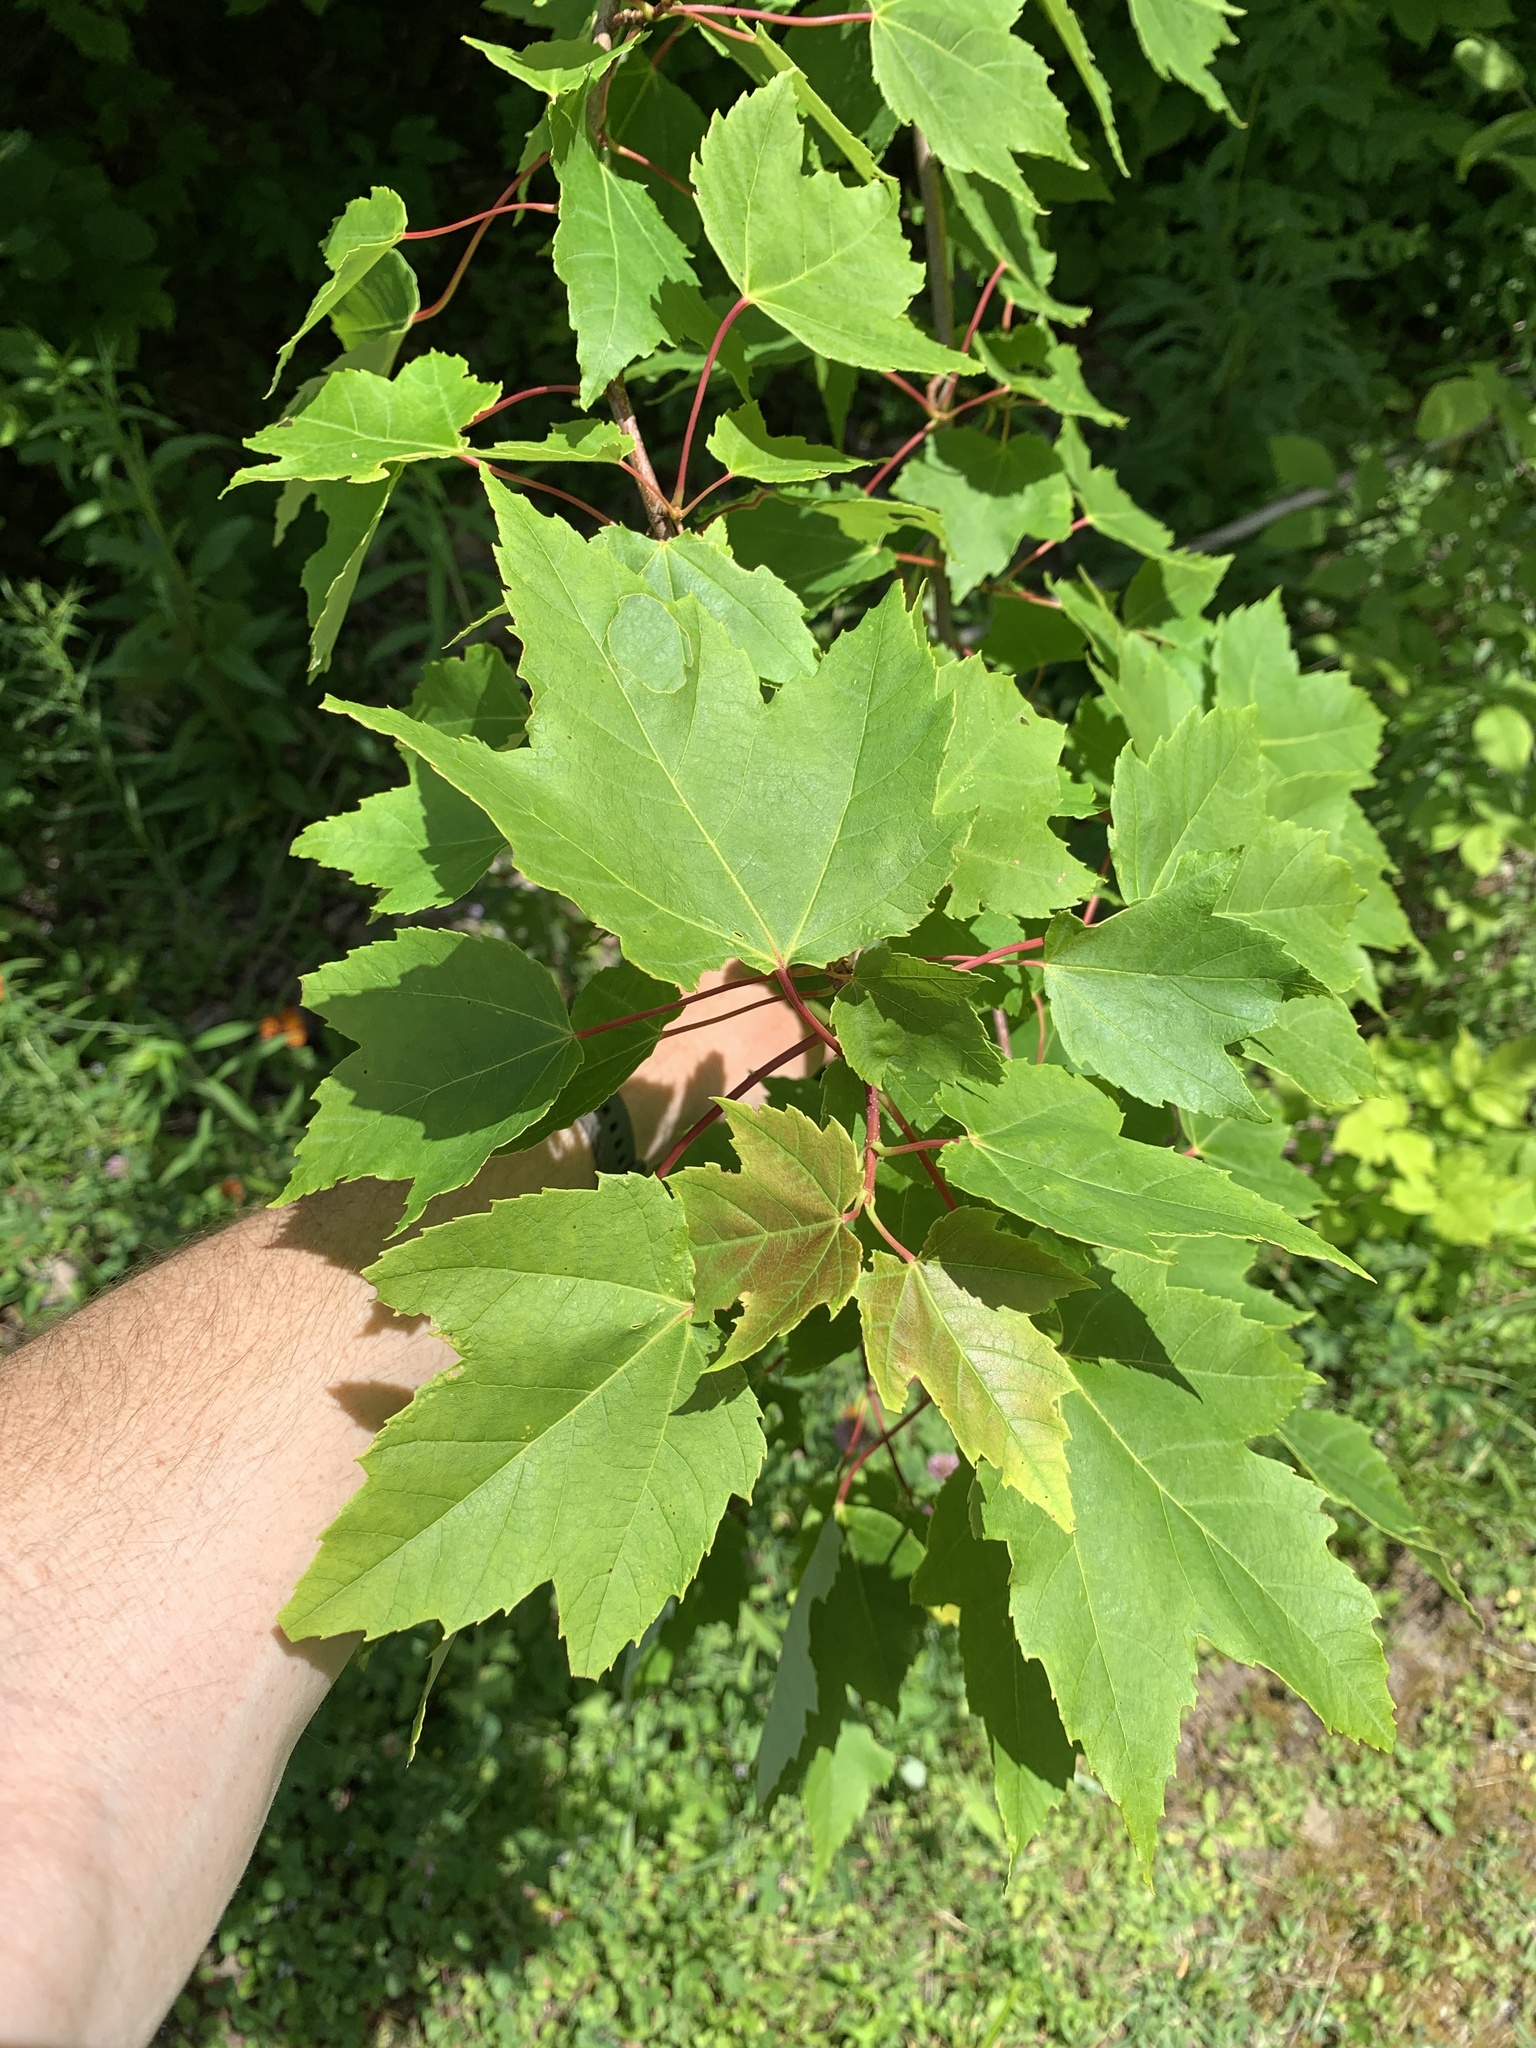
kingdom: Plantae
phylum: Tracheophyta
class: Magnoliopsida
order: Sapindales
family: Sapindaceae
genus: Acer
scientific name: Acer rubrum
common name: Red maple
